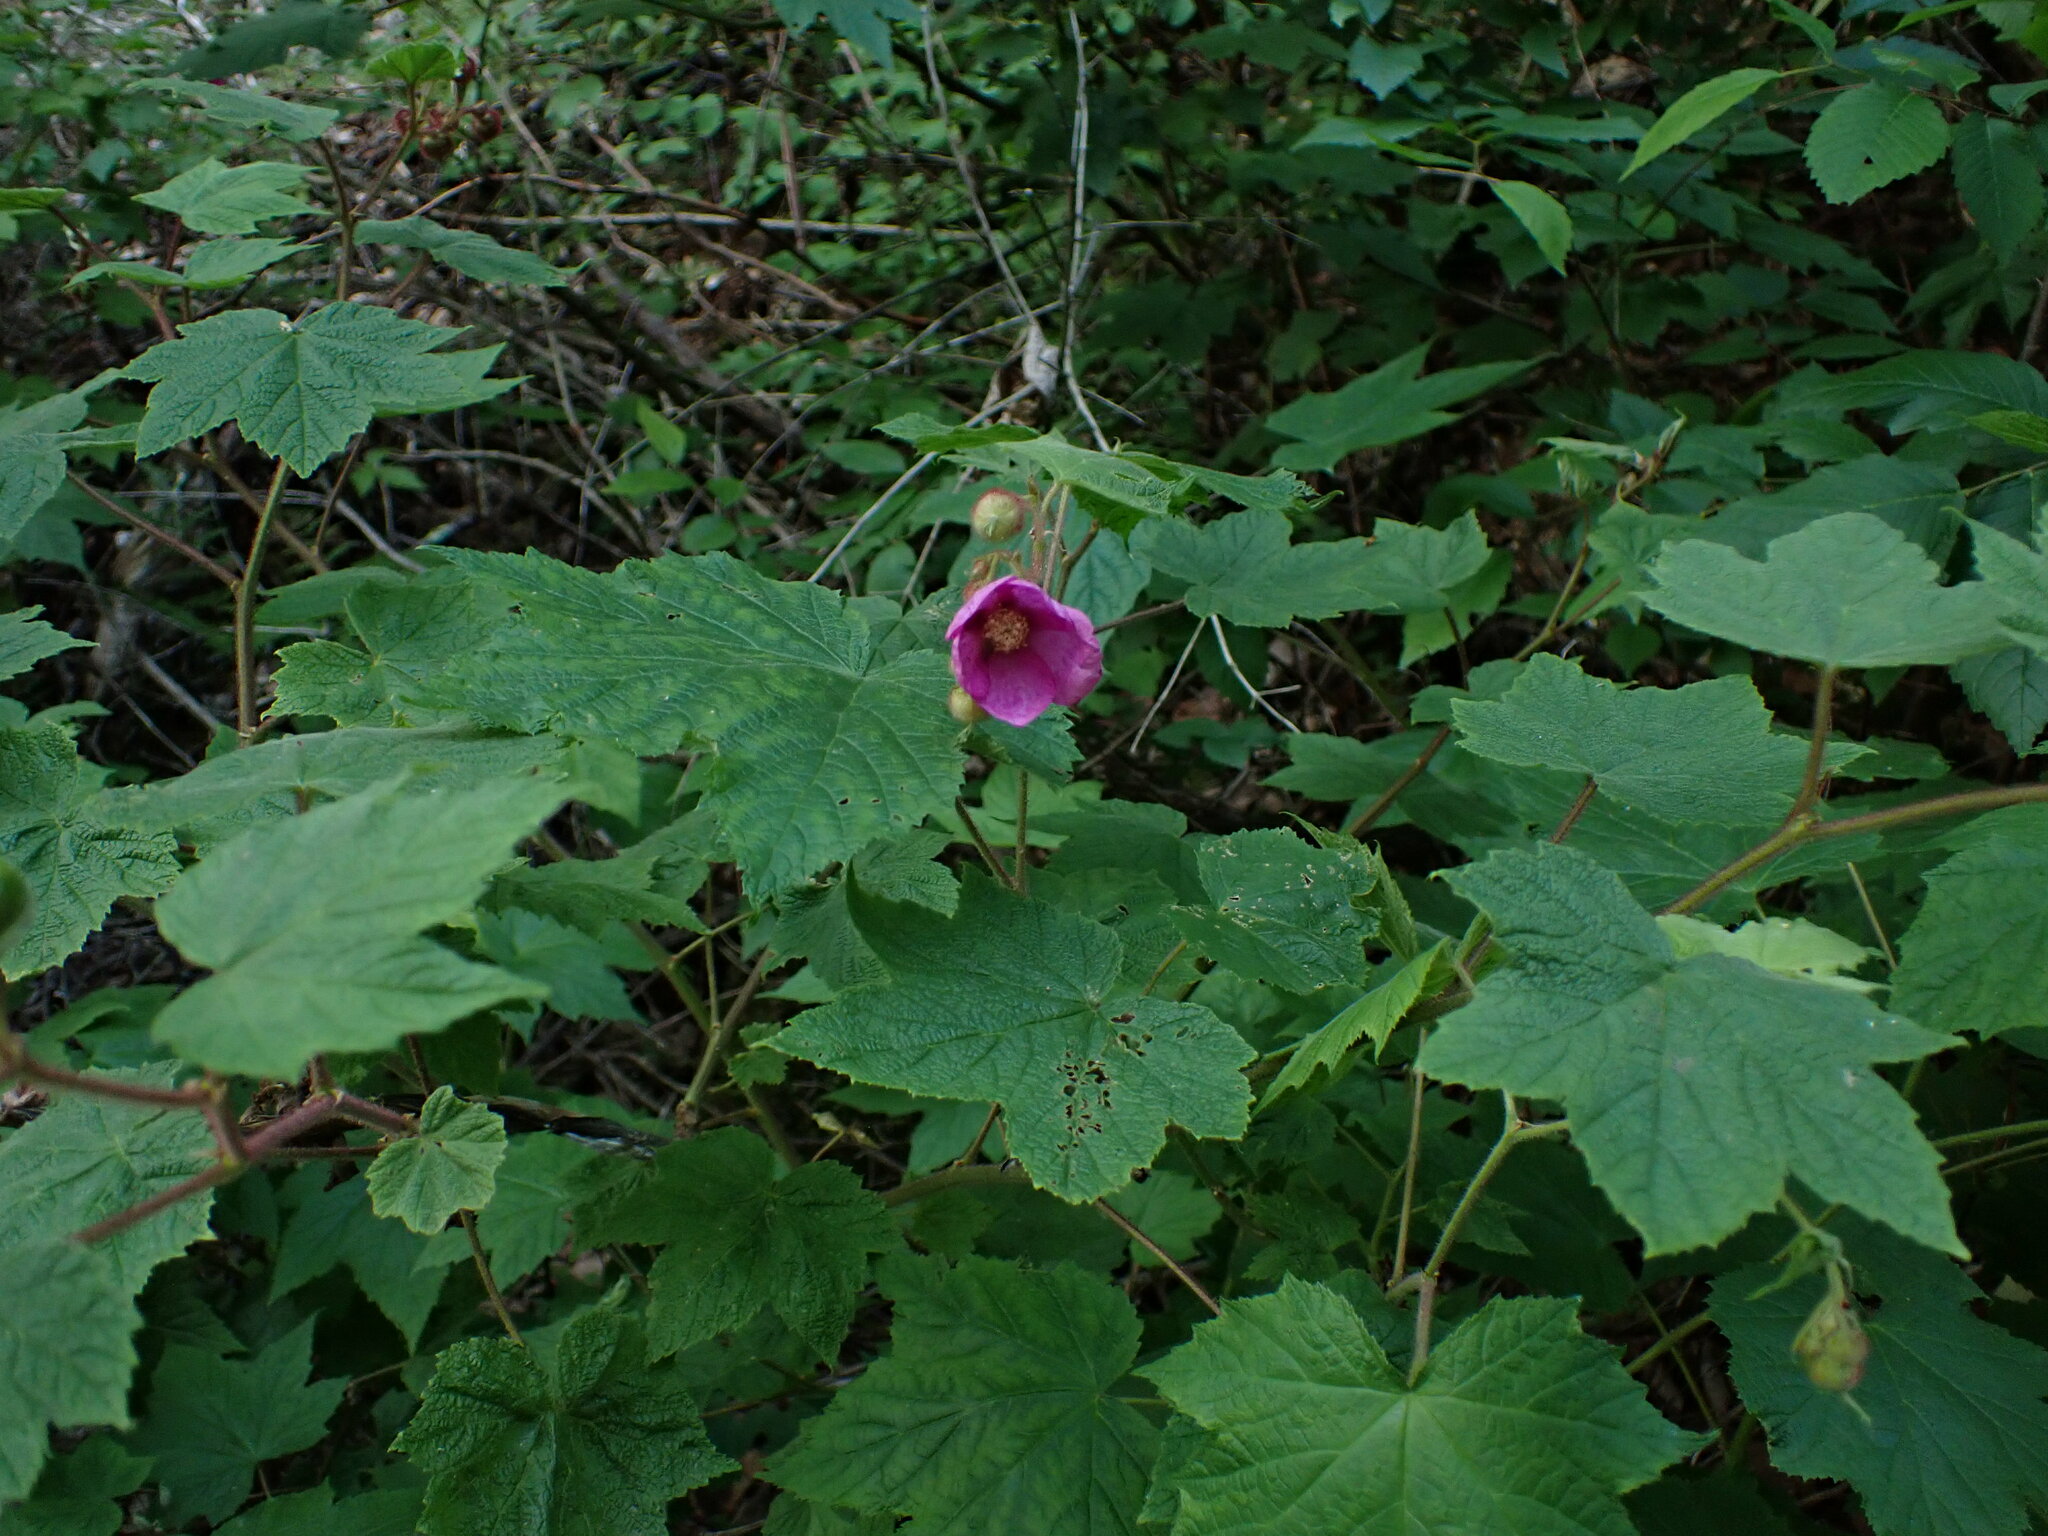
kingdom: Plantae
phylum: Tracheophyta
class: Magnoliopsida
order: Rosales
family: Rosaceae
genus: Rubus
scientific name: Rubus odoratus
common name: Purple-flowered raspberry
